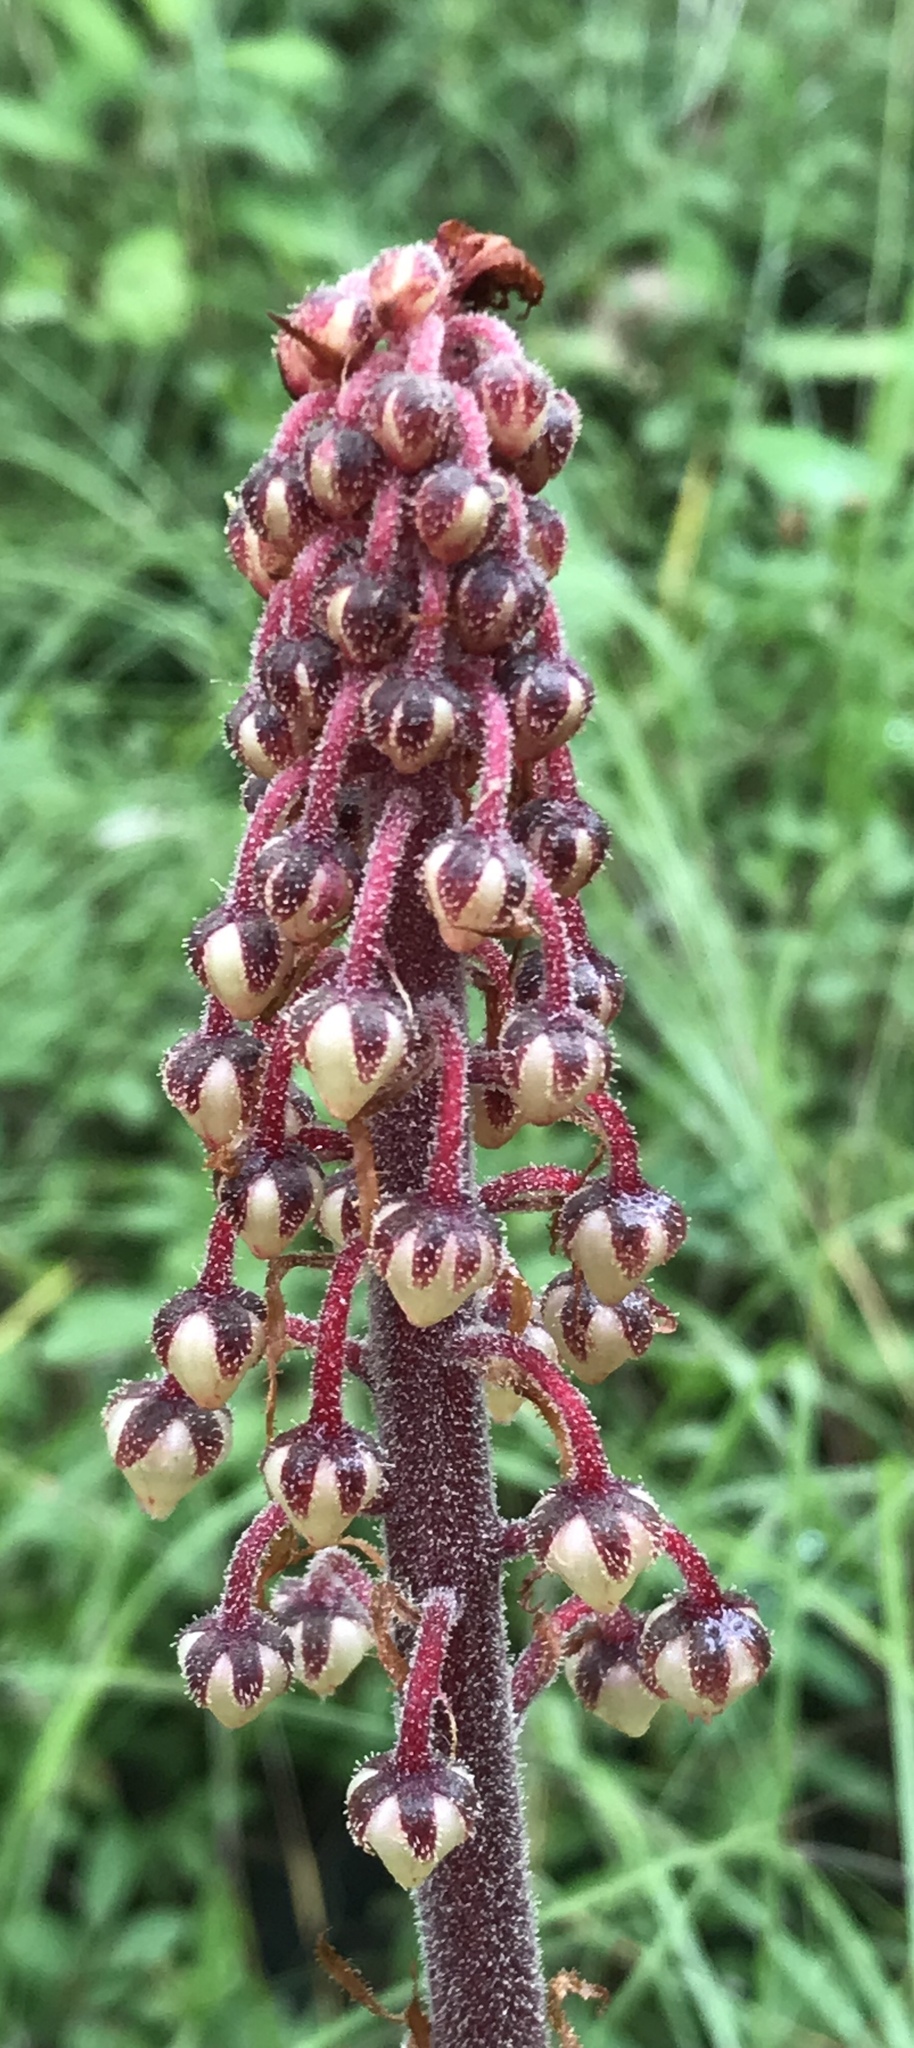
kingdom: Plantae
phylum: Tracheophyta
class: Magnoliopsida
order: Ericales
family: Ericaceae
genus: Pterospora
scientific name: Pterospora andromedea
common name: Giant bird's-nest
